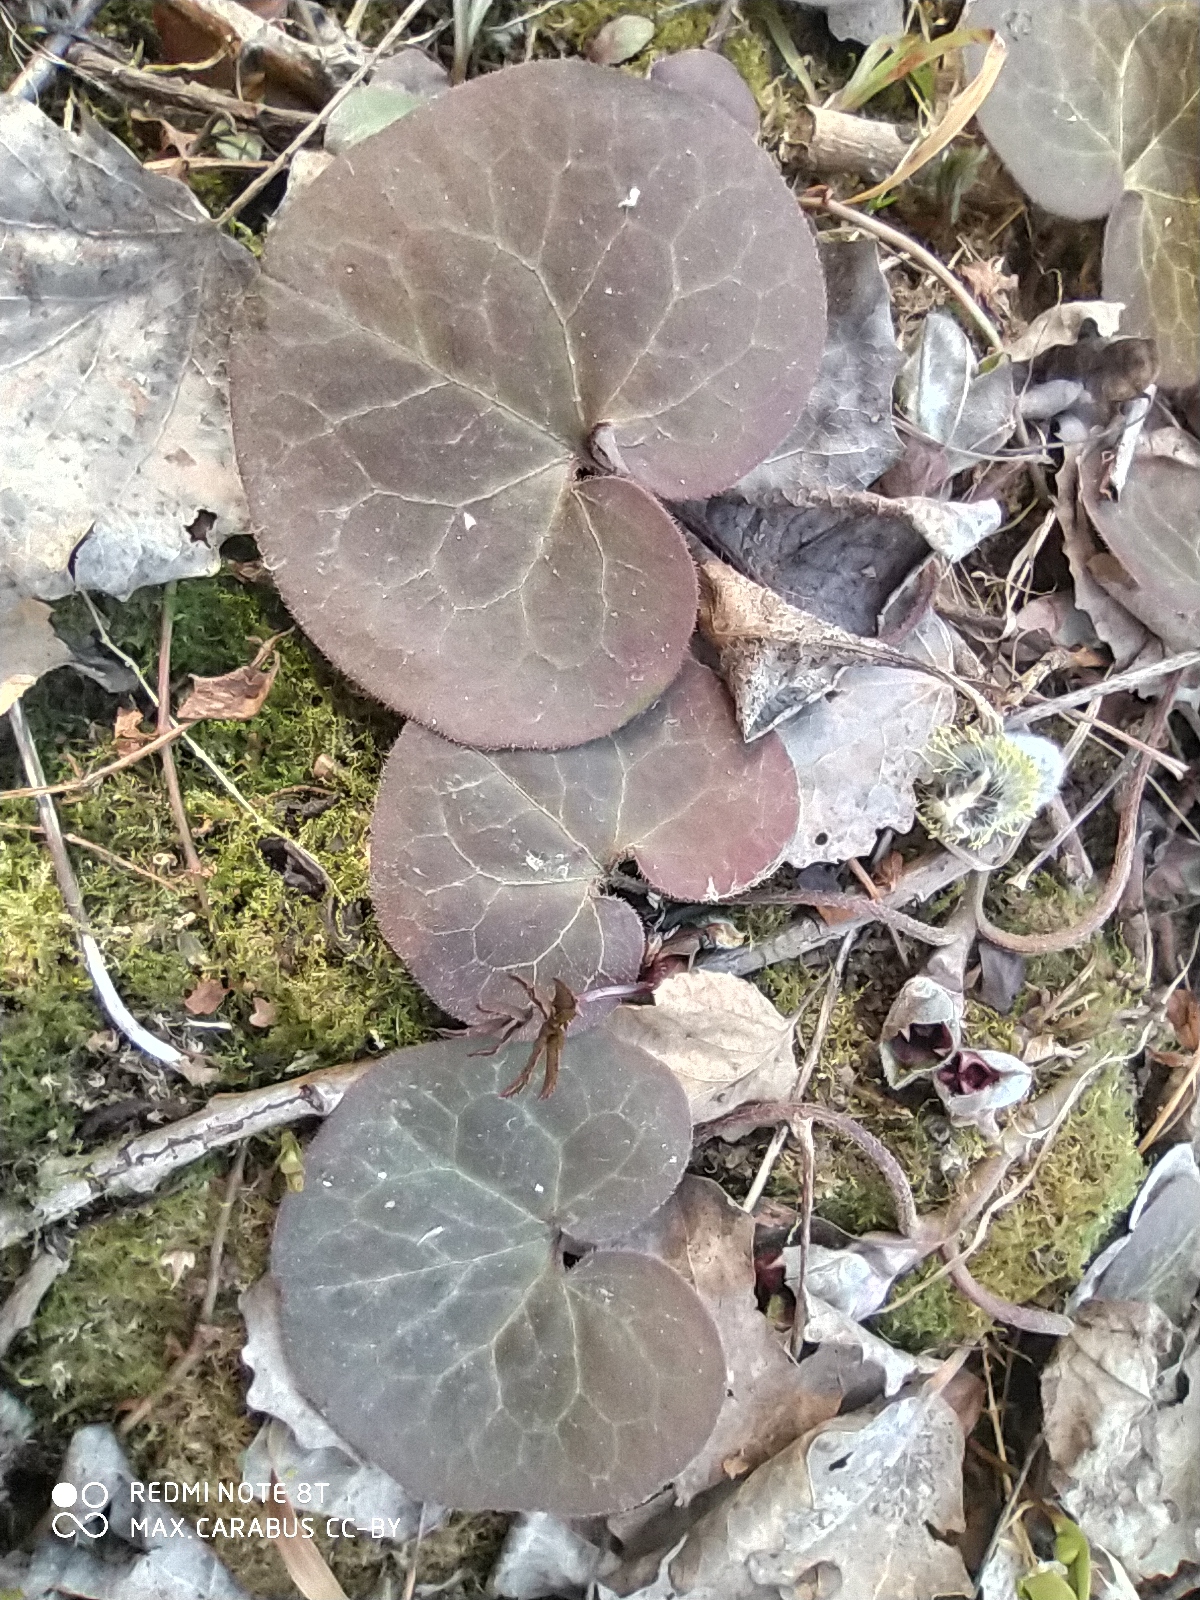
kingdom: Plantae
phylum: Tracheophyta
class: Magnoliopsida
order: Piperales
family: Aristolochiaceae
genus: Asarum
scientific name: Asarum europaeum
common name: Asarabacca
